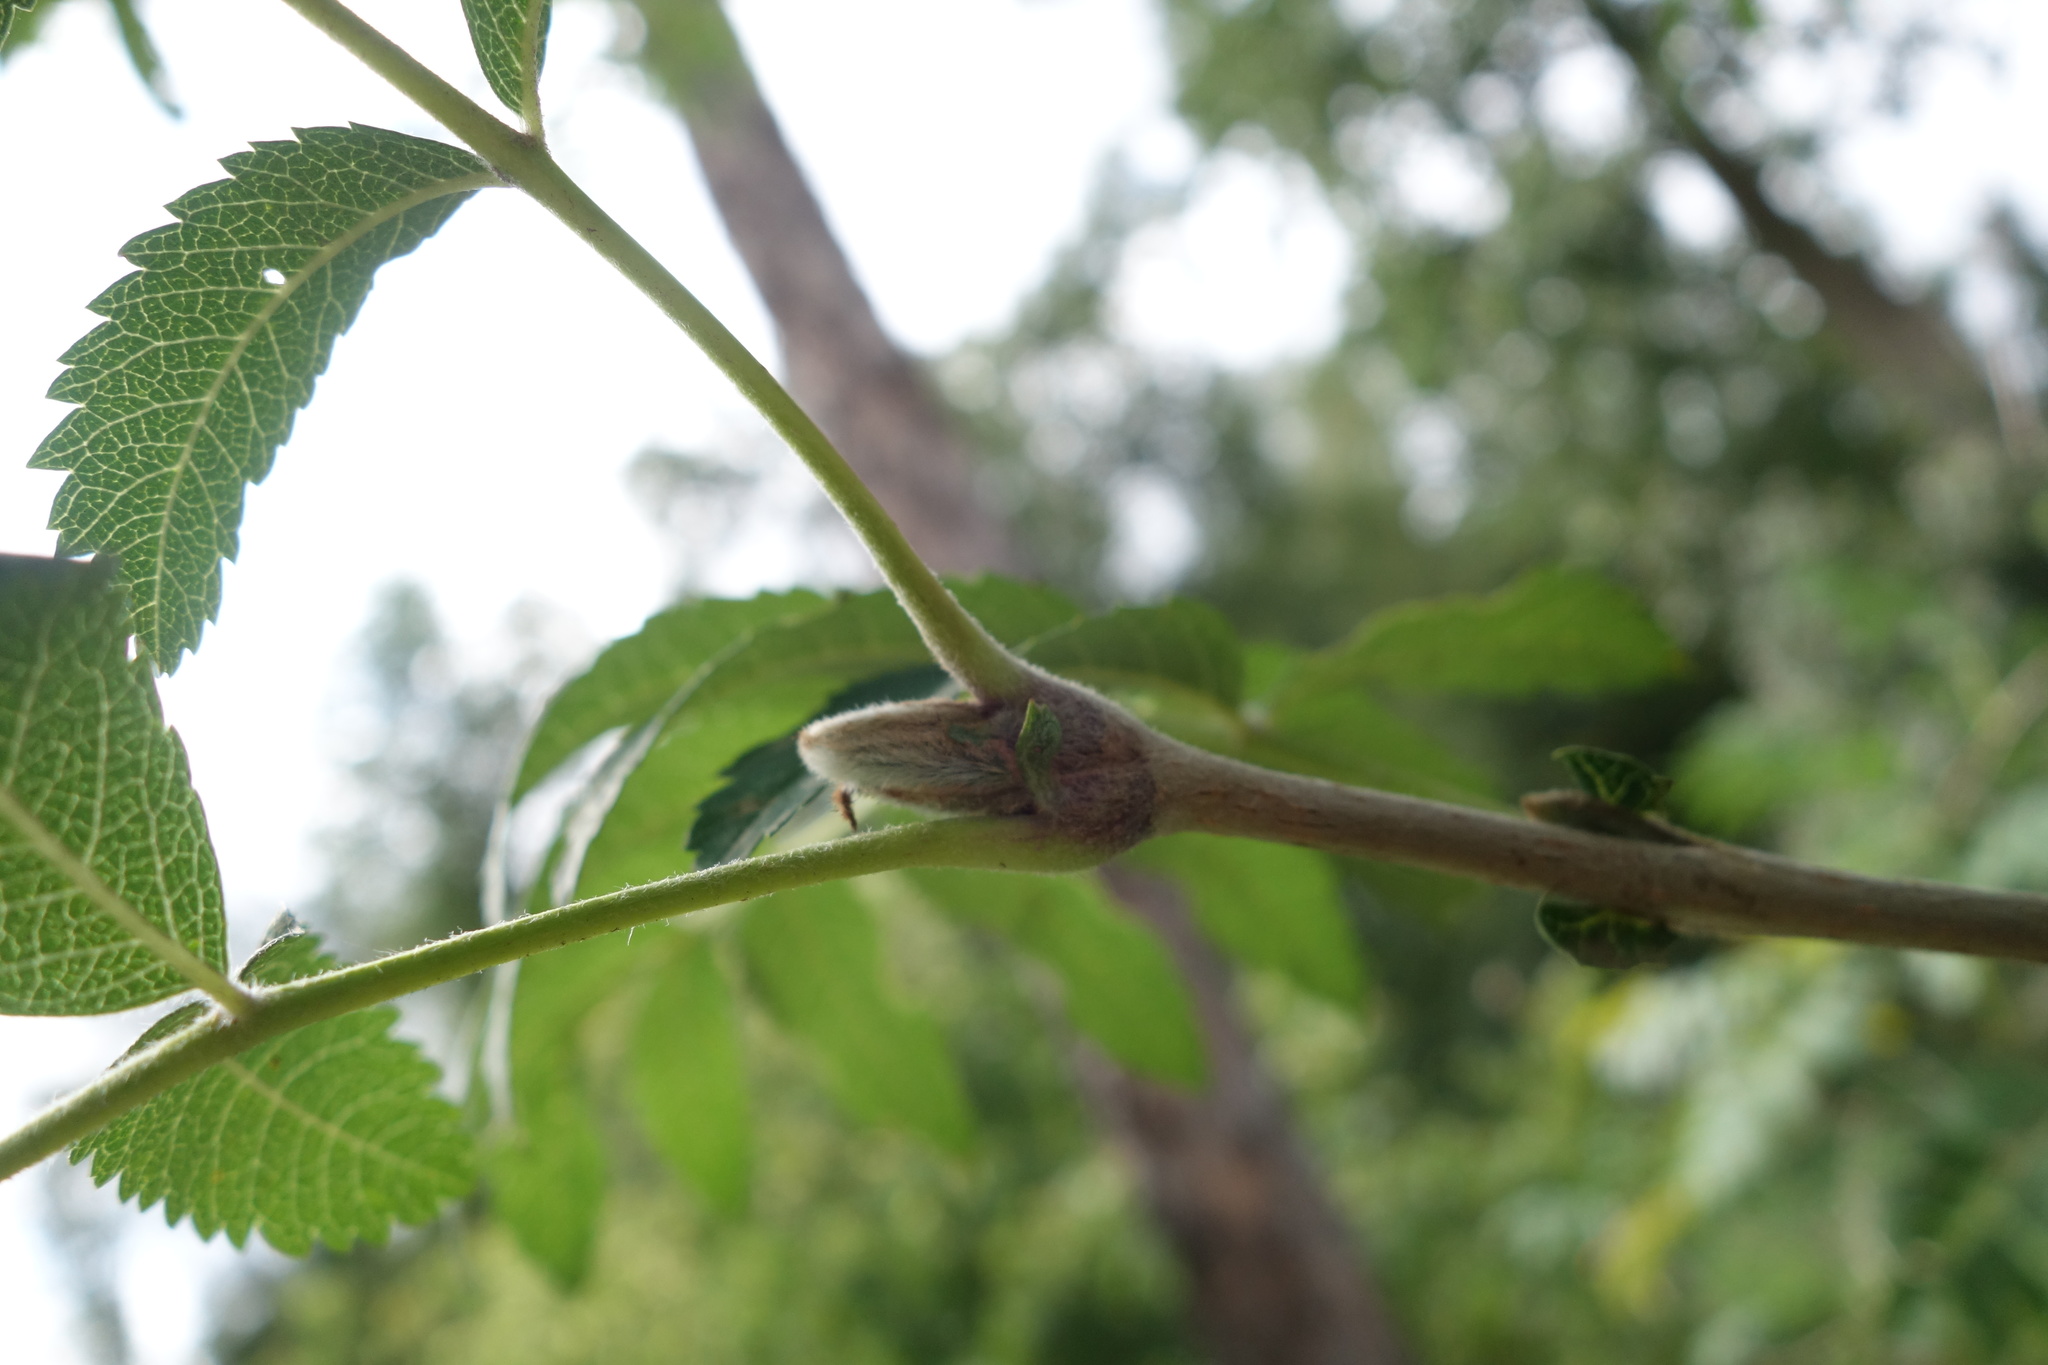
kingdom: Plantae
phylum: Tracheophyta
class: Magnoliopsida
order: Rosales
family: Rosaceae
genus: Sorbus
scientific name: Sorbus aucuparia
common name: Rowan
